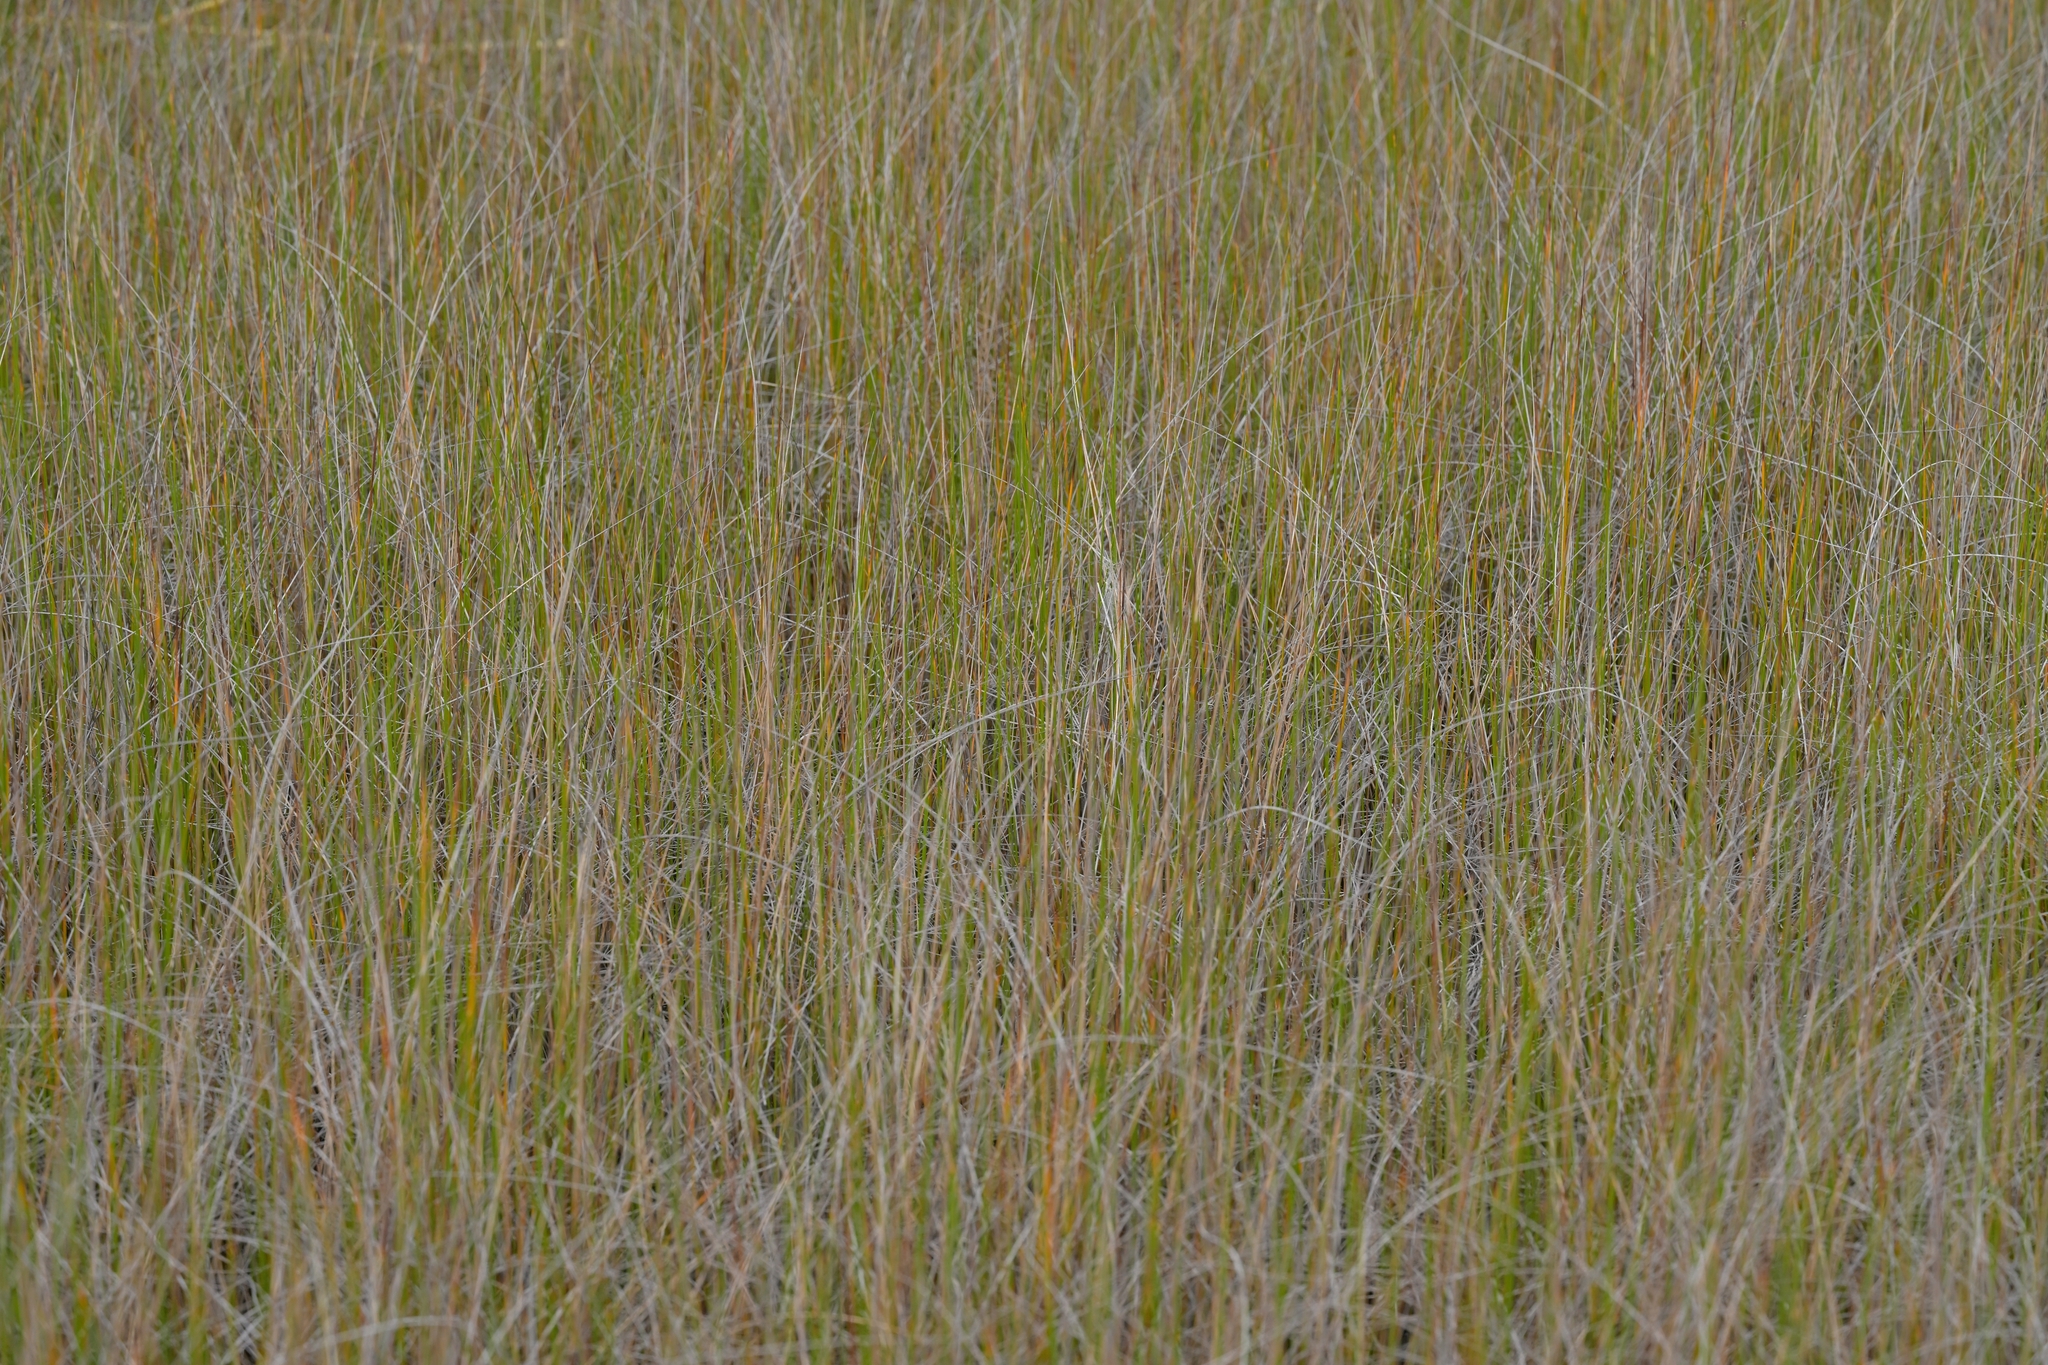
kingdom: Plantae
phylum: Tracheophyta
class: Liliopsida
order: Poales
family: Cyperaceae
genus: Lepidosperma
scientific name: Lepidosperma australe
